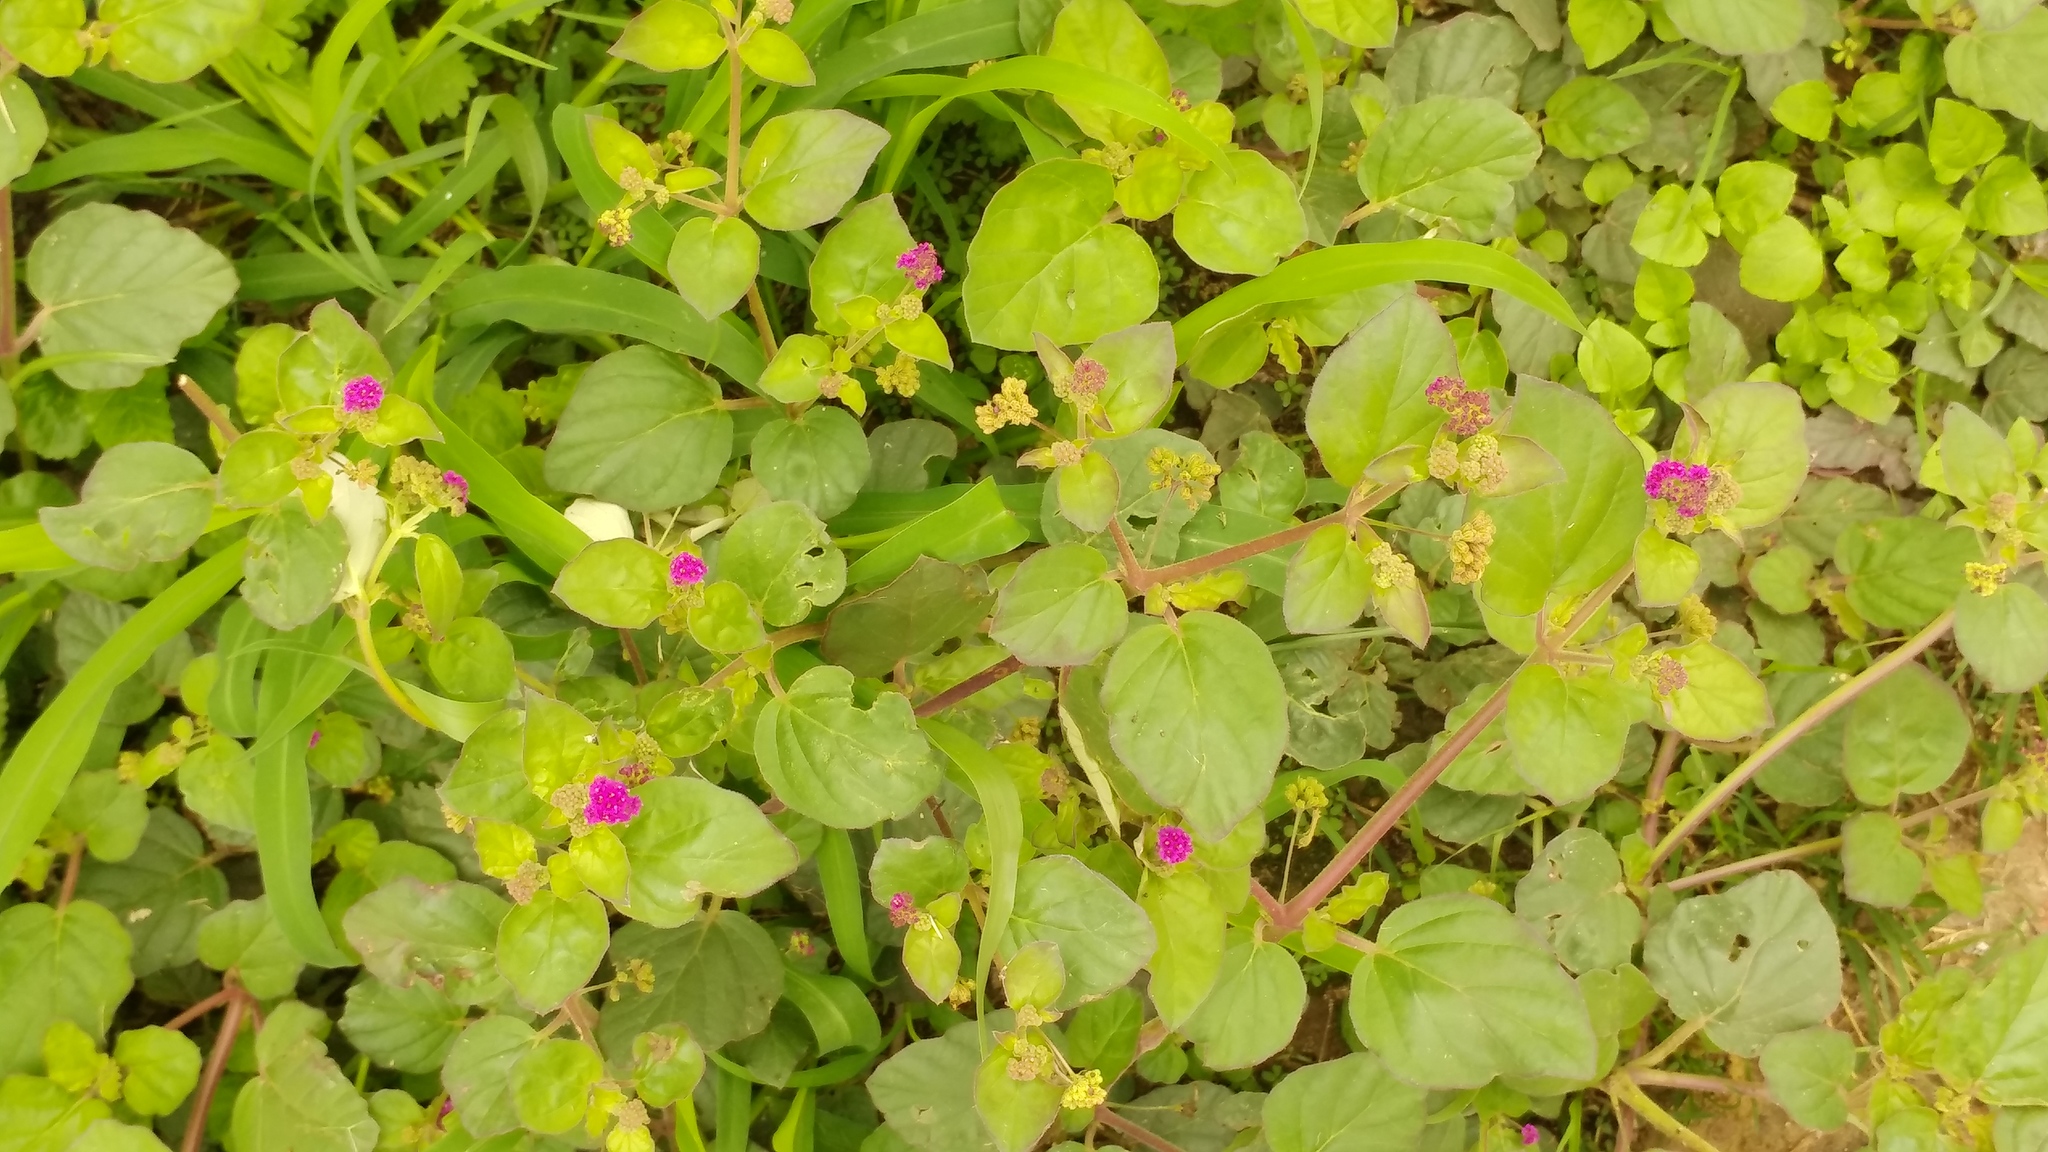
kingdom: Plantae
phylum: Tracheophyta
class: Magnoliopsida
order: Caryophyllales
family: Nyctaginaceae
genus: Boerhavia
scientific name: Boerhavia coccinea
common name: Scarlet spiderling
